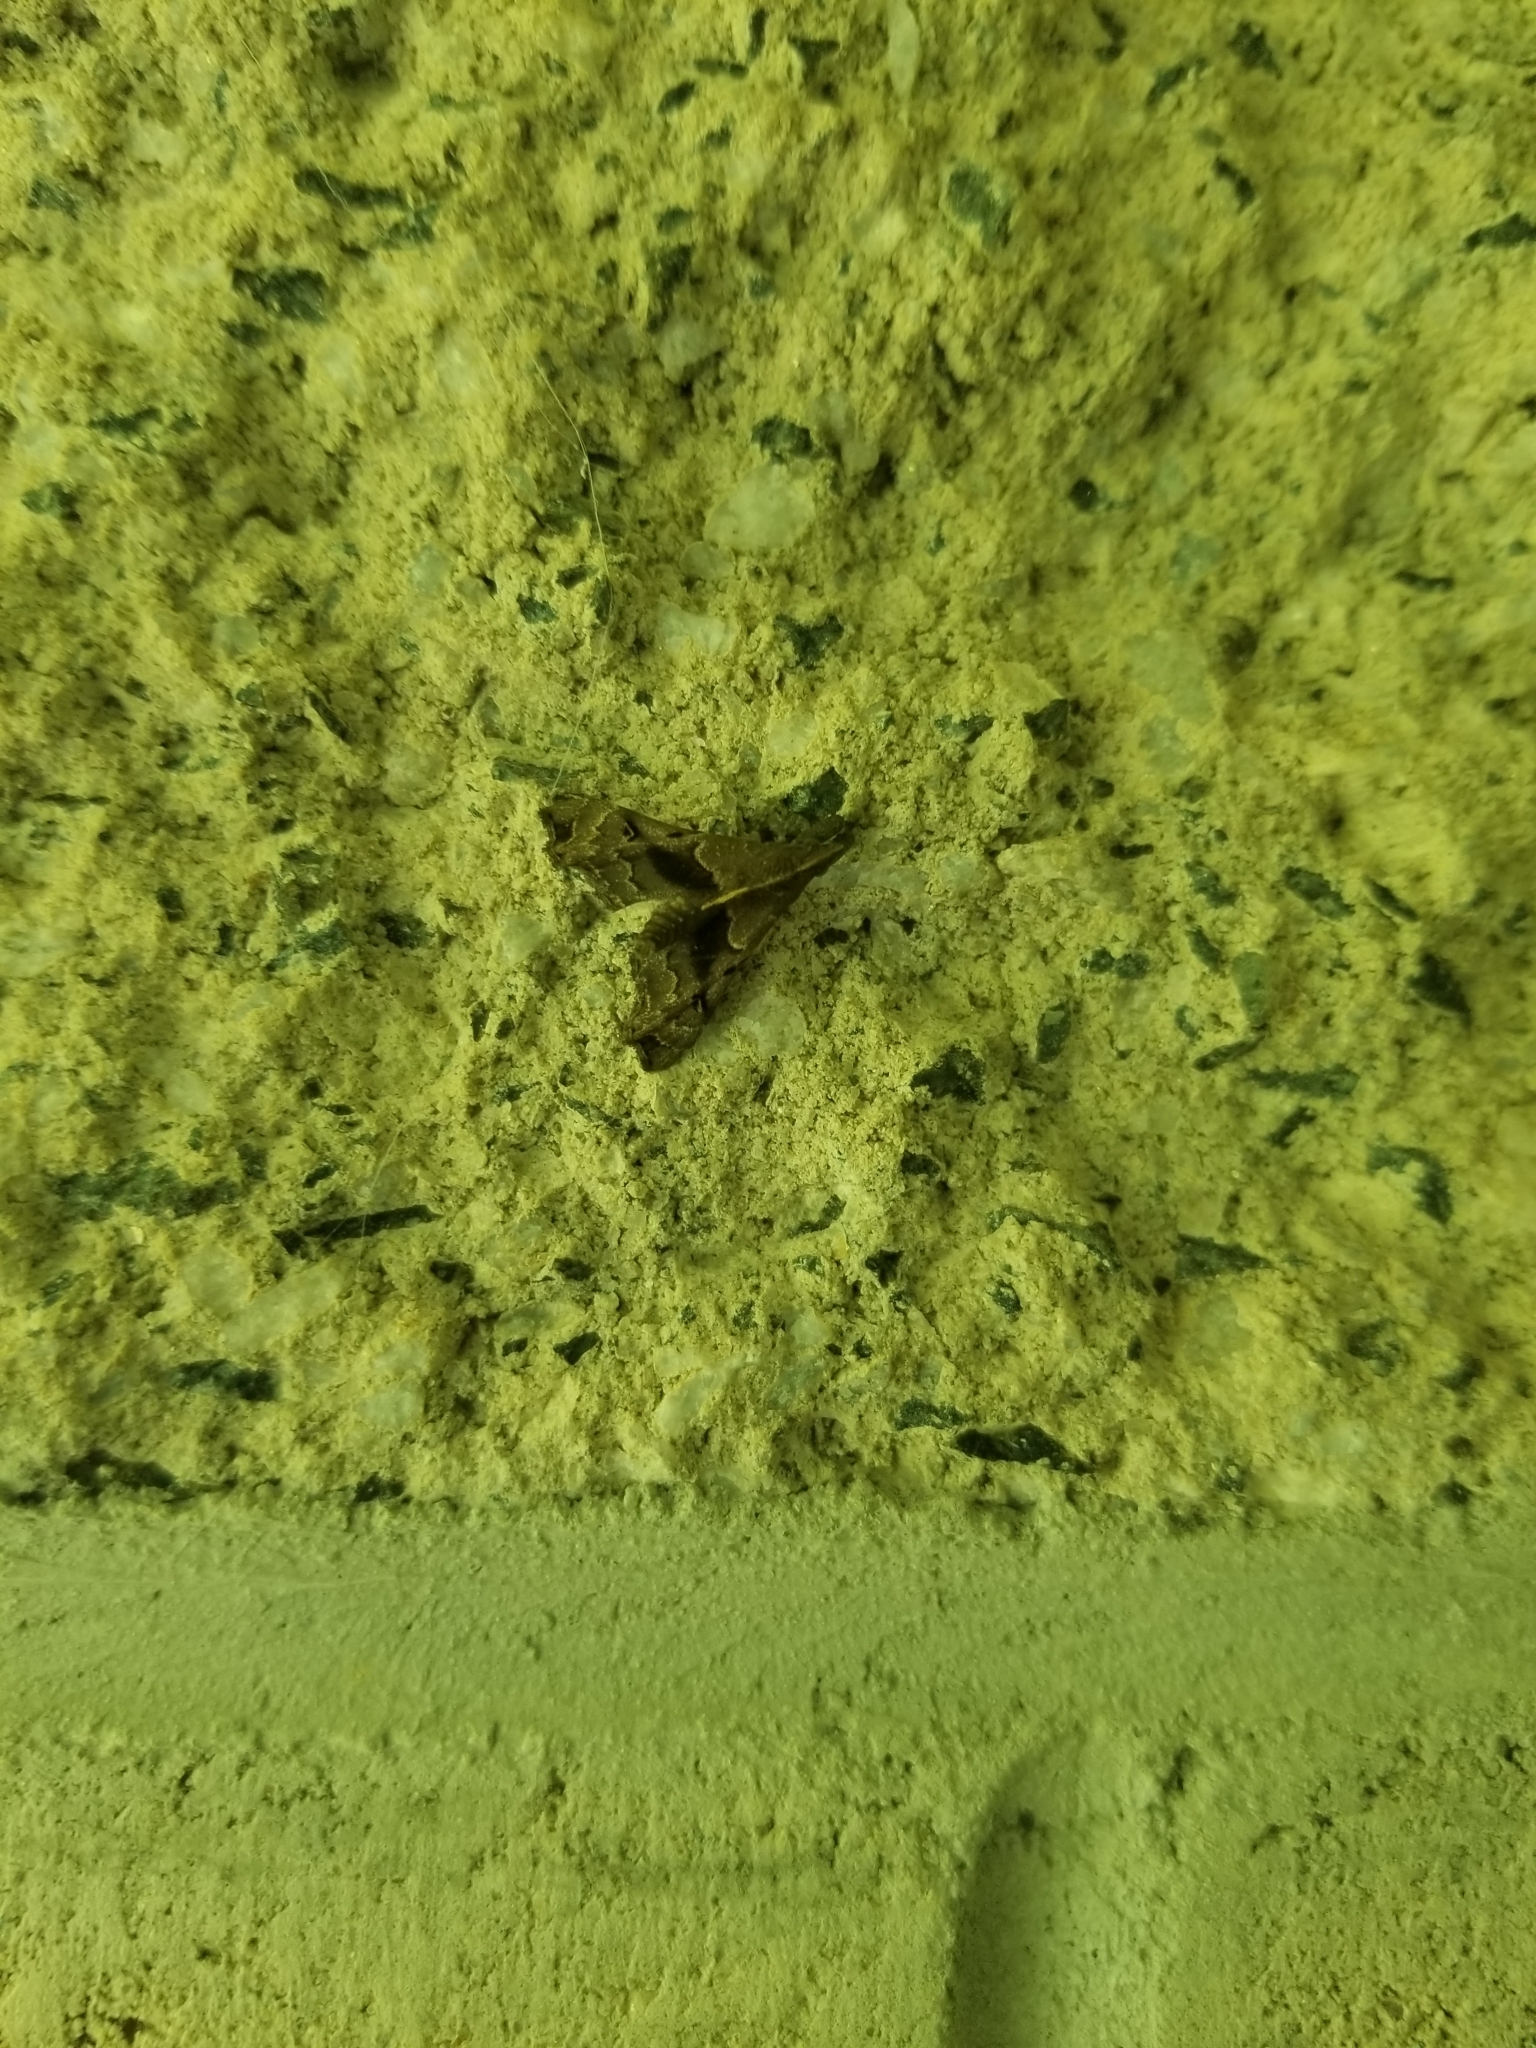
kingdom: Animalia
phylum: Arthropoda
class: Insecta
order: Lepidoptera
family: Erebidae
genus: Palthis
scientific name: Palthis asopialis
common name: Faint-spotted palthis moth
